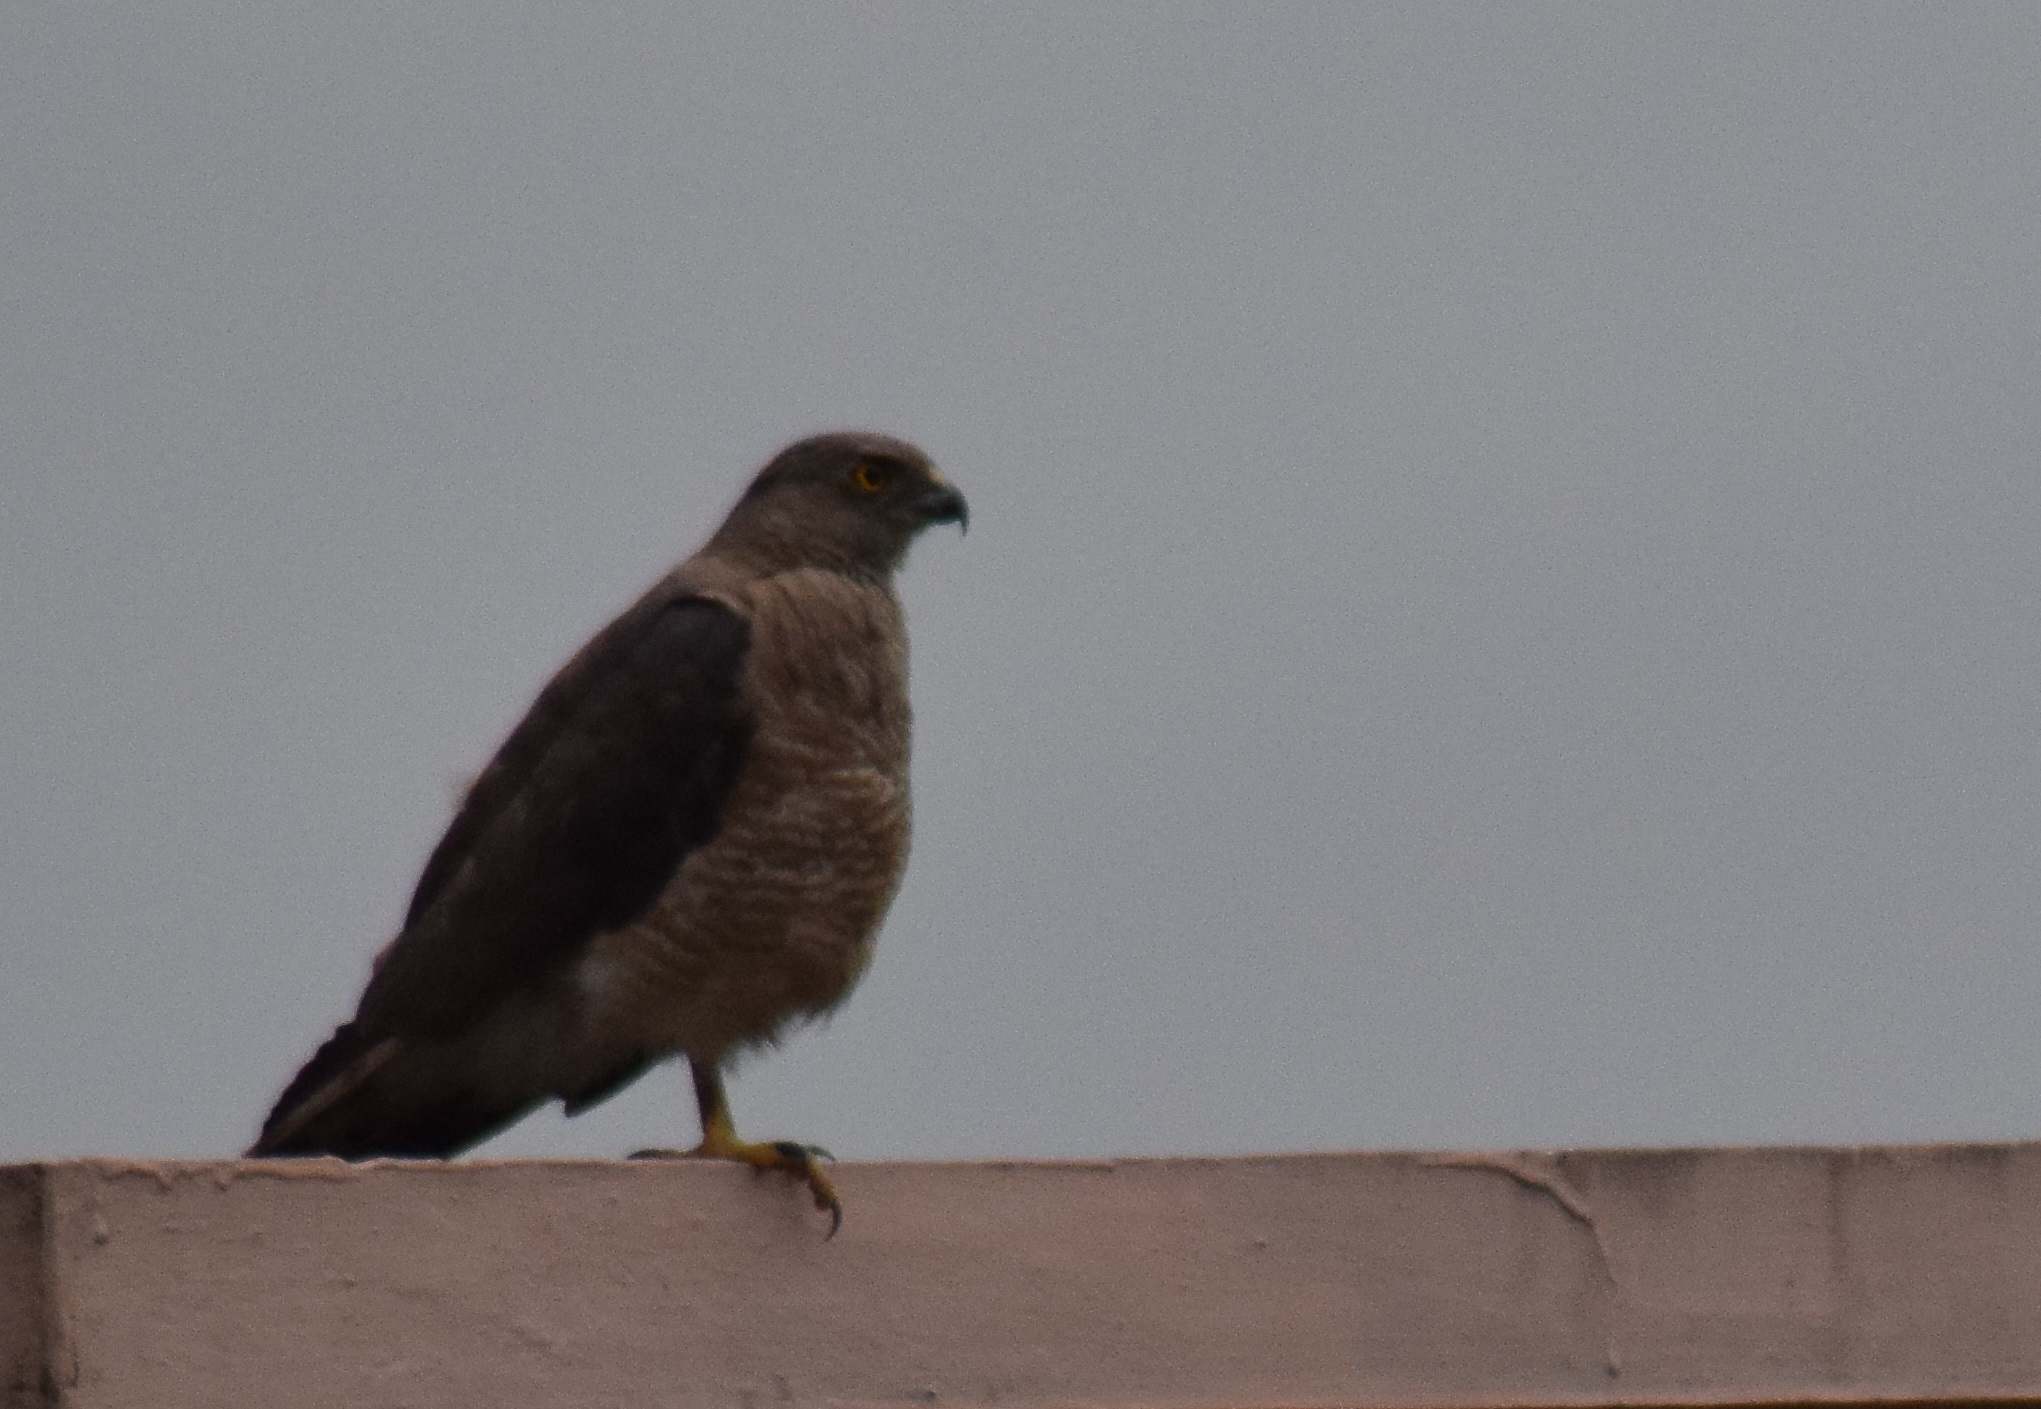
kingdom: Animalia
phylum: Chordata
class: Aves
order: Accipitriformes
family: Accipitridae
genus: Accipiter
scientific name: Accipiter badius
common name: Shikra
